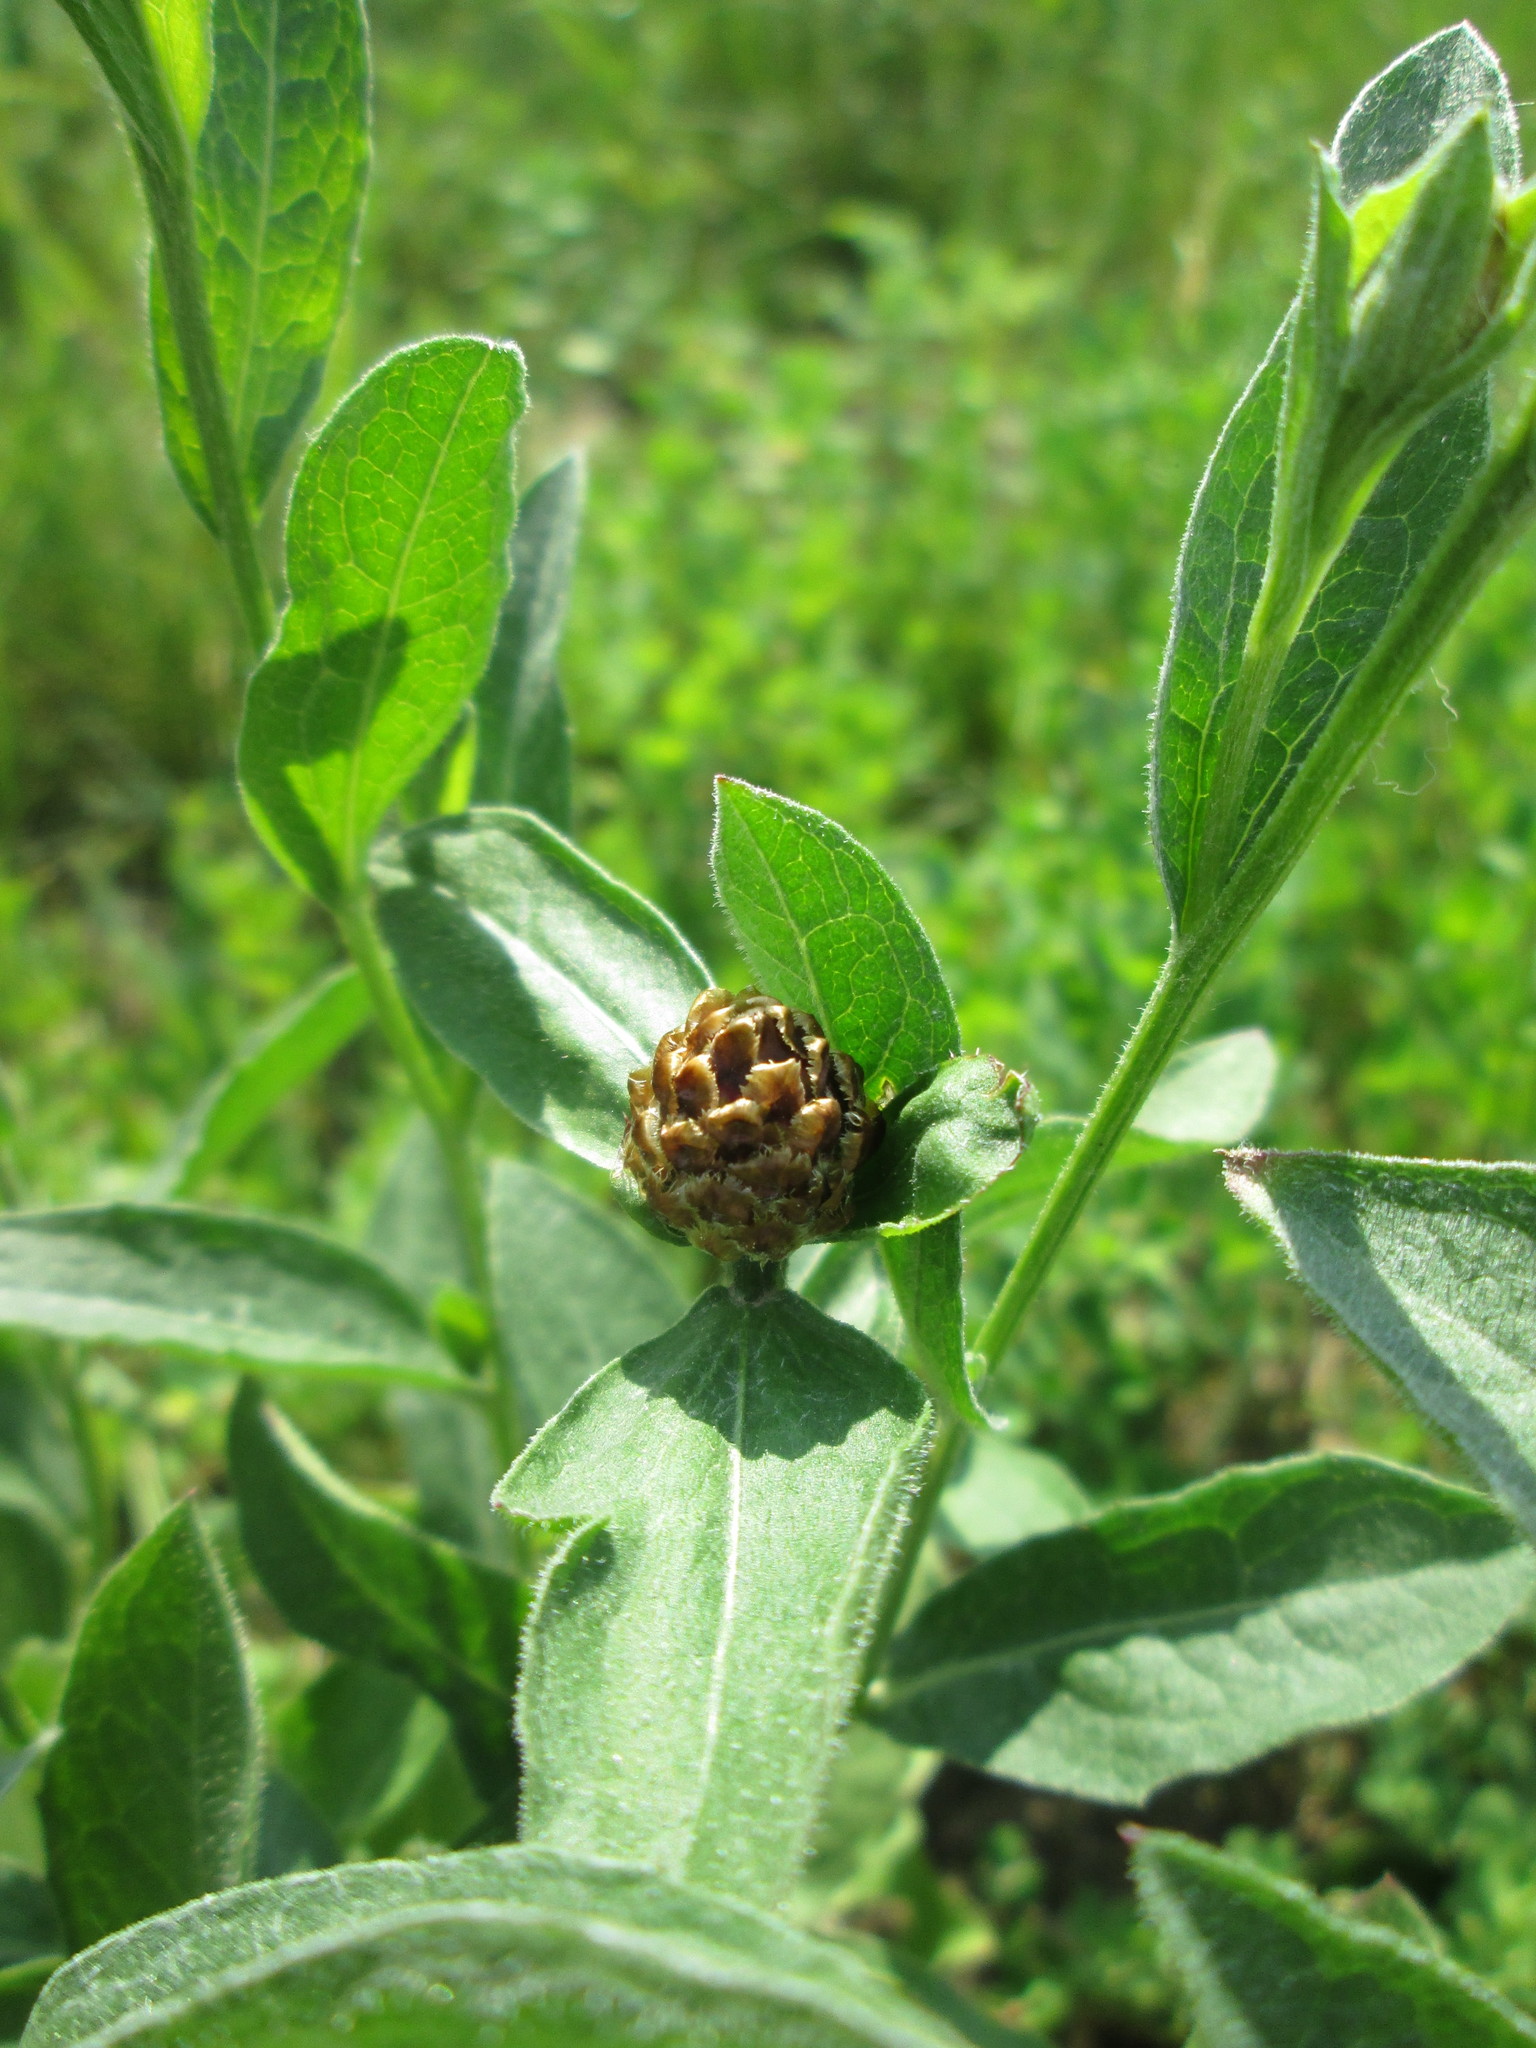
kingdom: Plantae
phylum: Tracheophyta
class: Magnoliopsida
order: Asterales
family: Asteraceae
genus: Centaurea
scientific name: Centaurea jacea
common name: Brown knapweed
